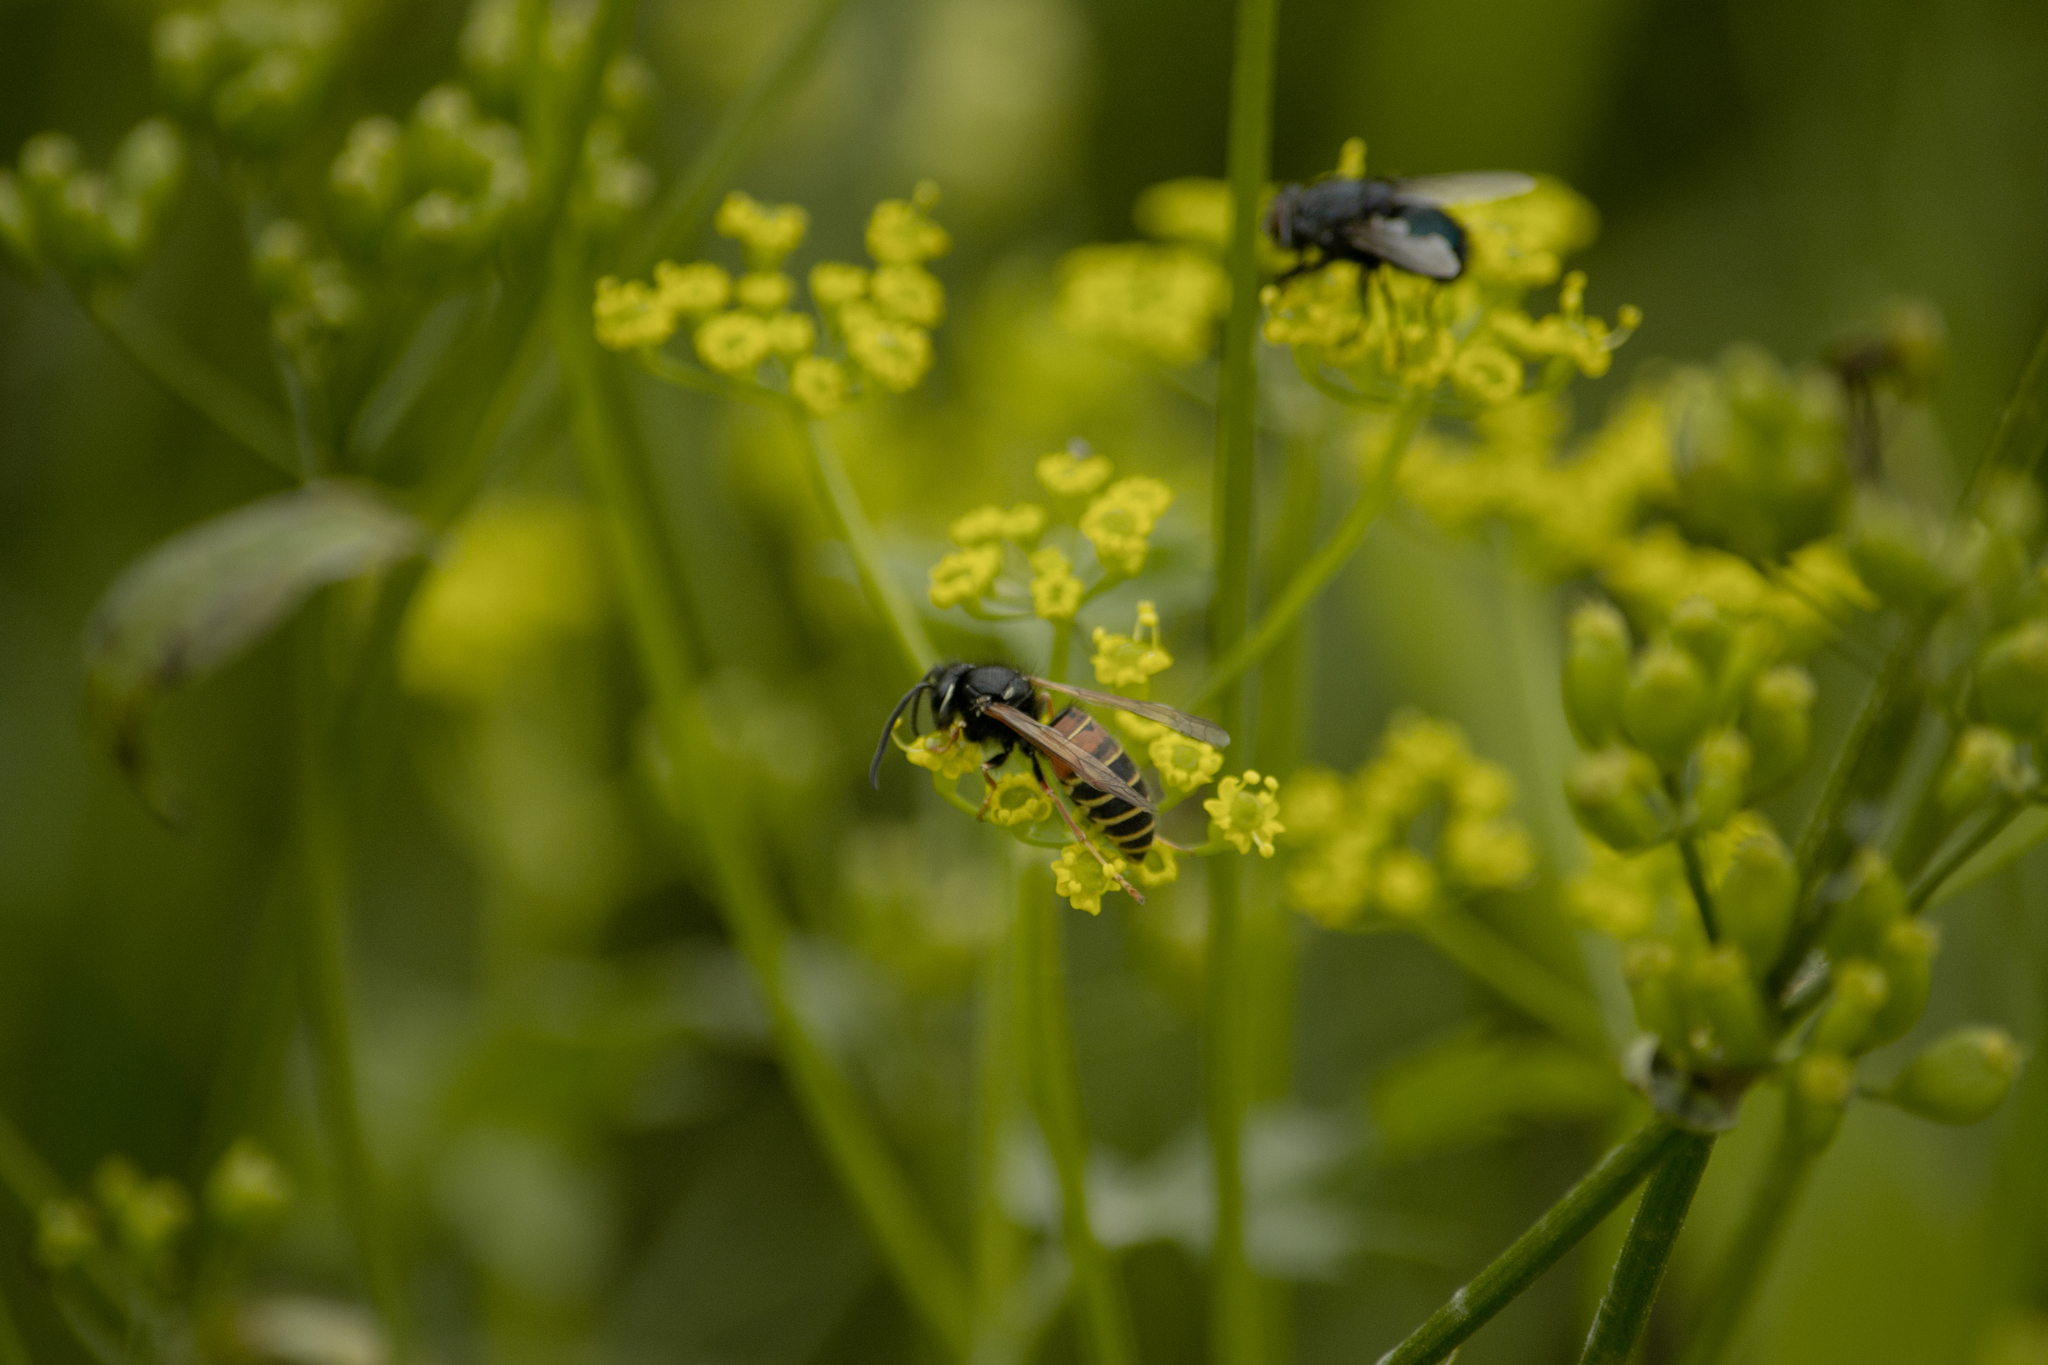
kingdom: Animalia
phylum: Arthropoda
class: Insecta
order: Hymenoptera
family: Vespidae
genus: Vespula
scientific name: Vespula rufa
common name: Red wasp
